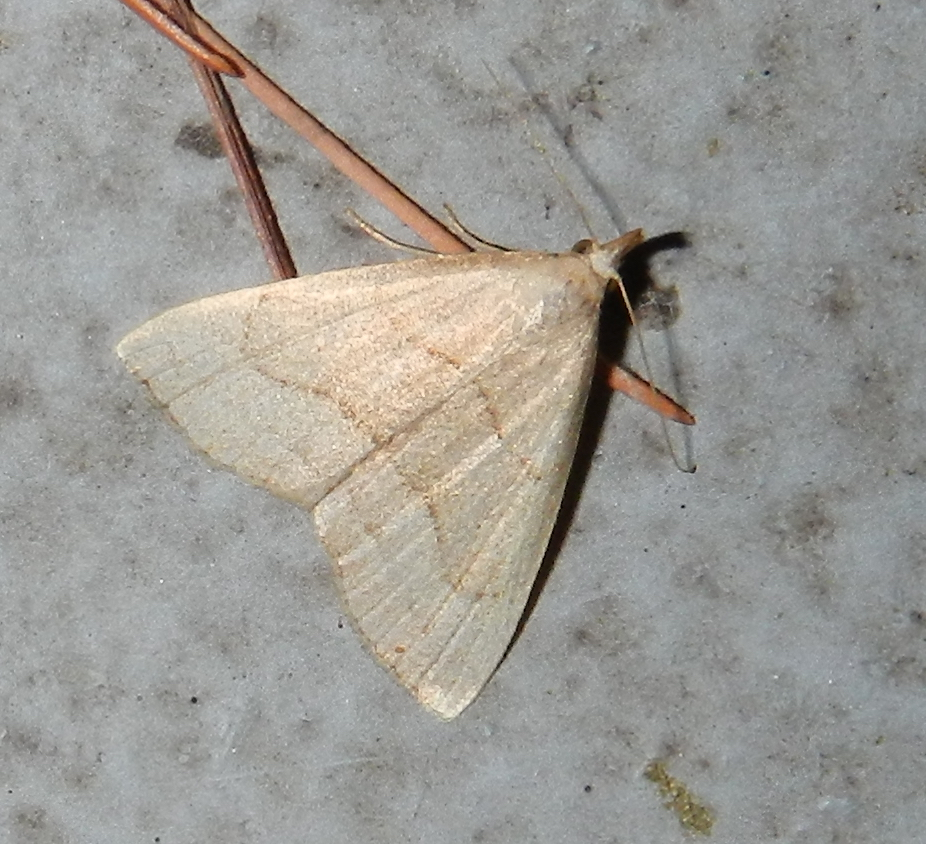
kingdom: Animalia
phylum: Arthropoda
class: Insecta
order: Lepidoptera
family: Erebidae
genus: Macrochilo
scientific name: Macrochilo litophora
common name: Brown-lined owlet
